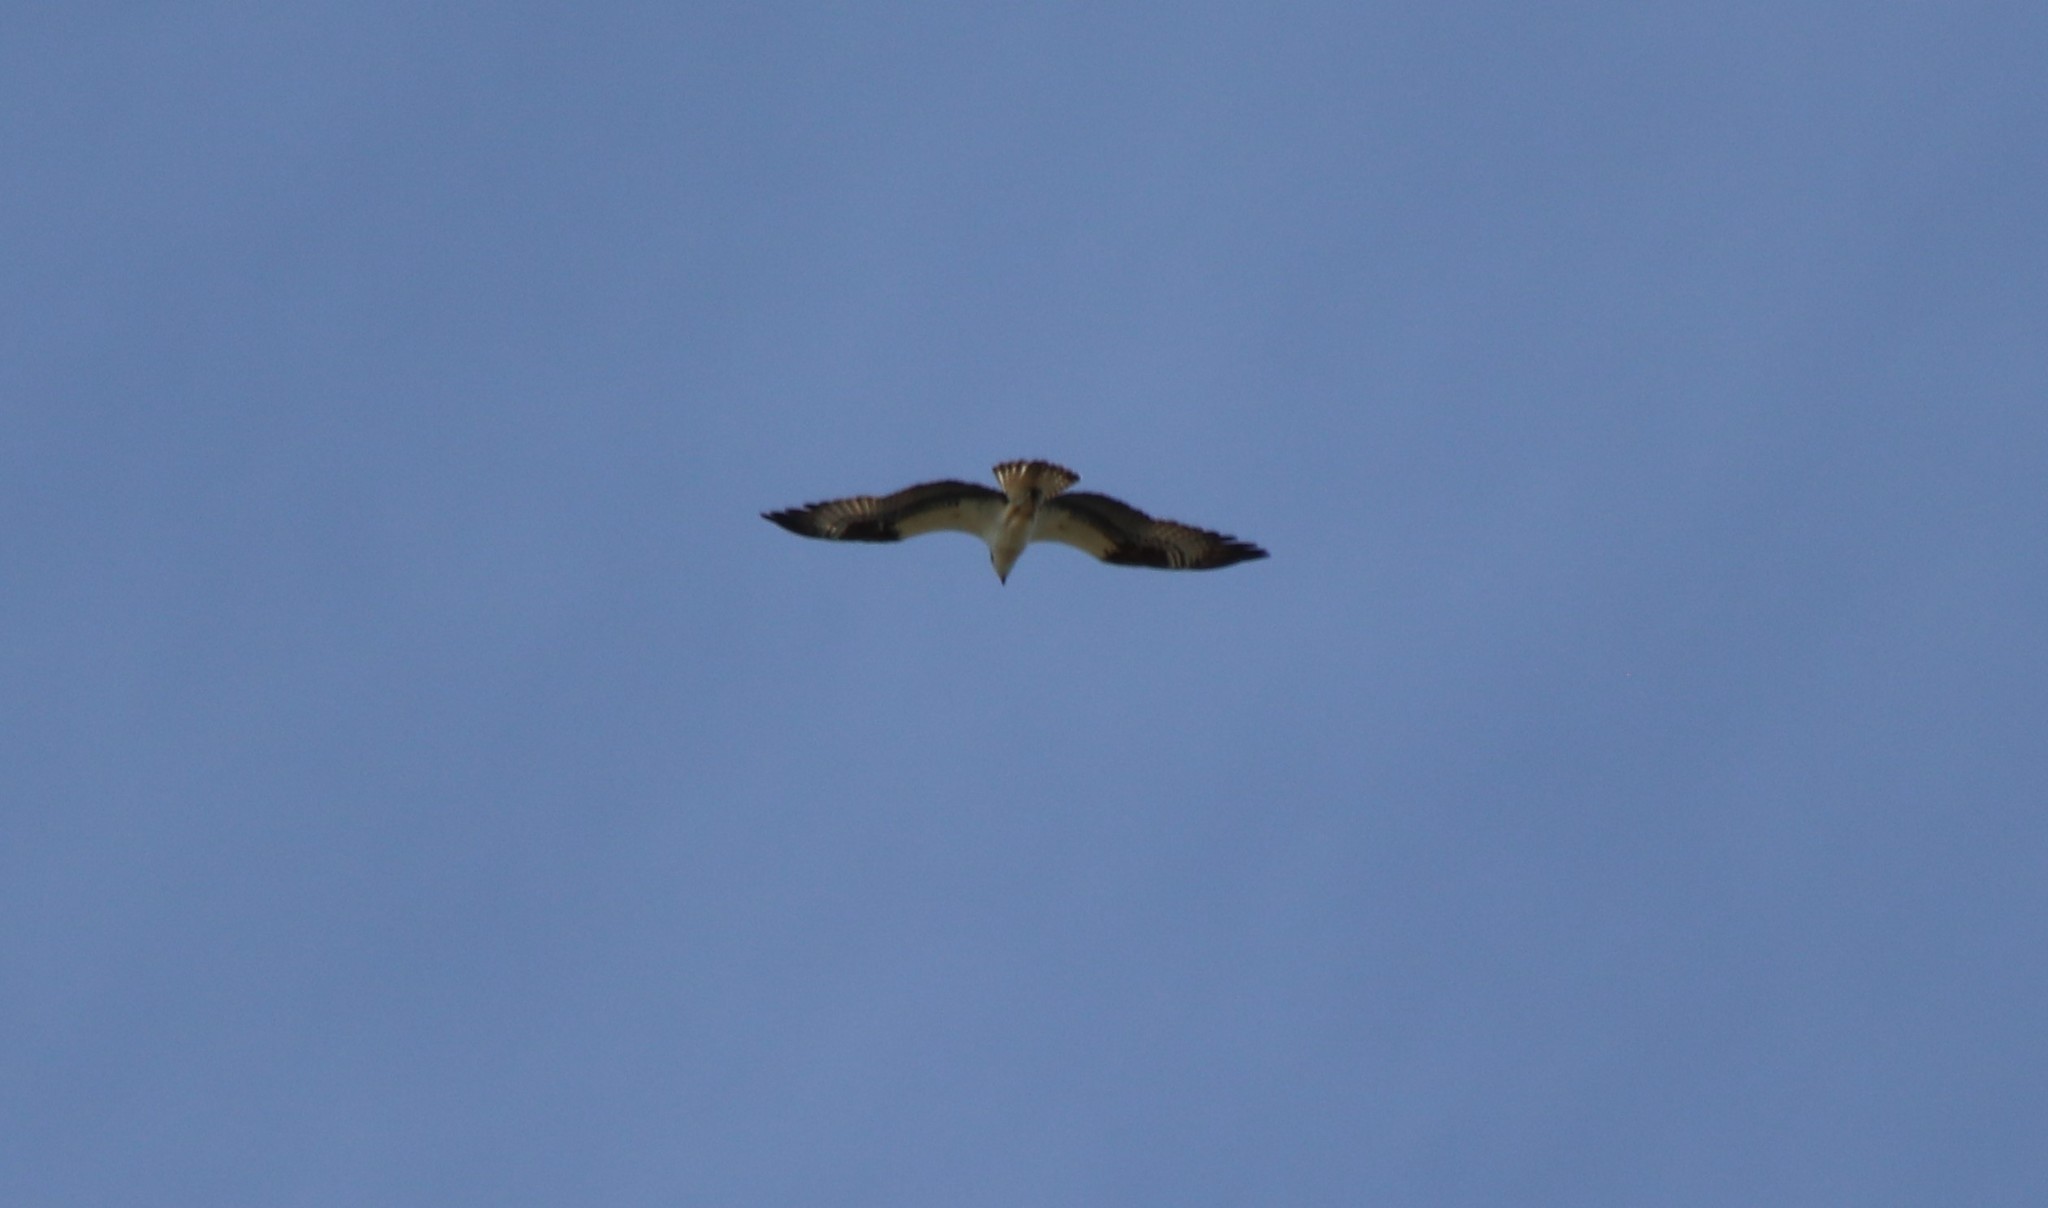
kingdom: Animalia
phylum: Chordata
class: Aves
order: Accipitriformes
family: Pandionidae
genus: Pandion
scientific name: Pandion haliaetus
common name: Osprey
